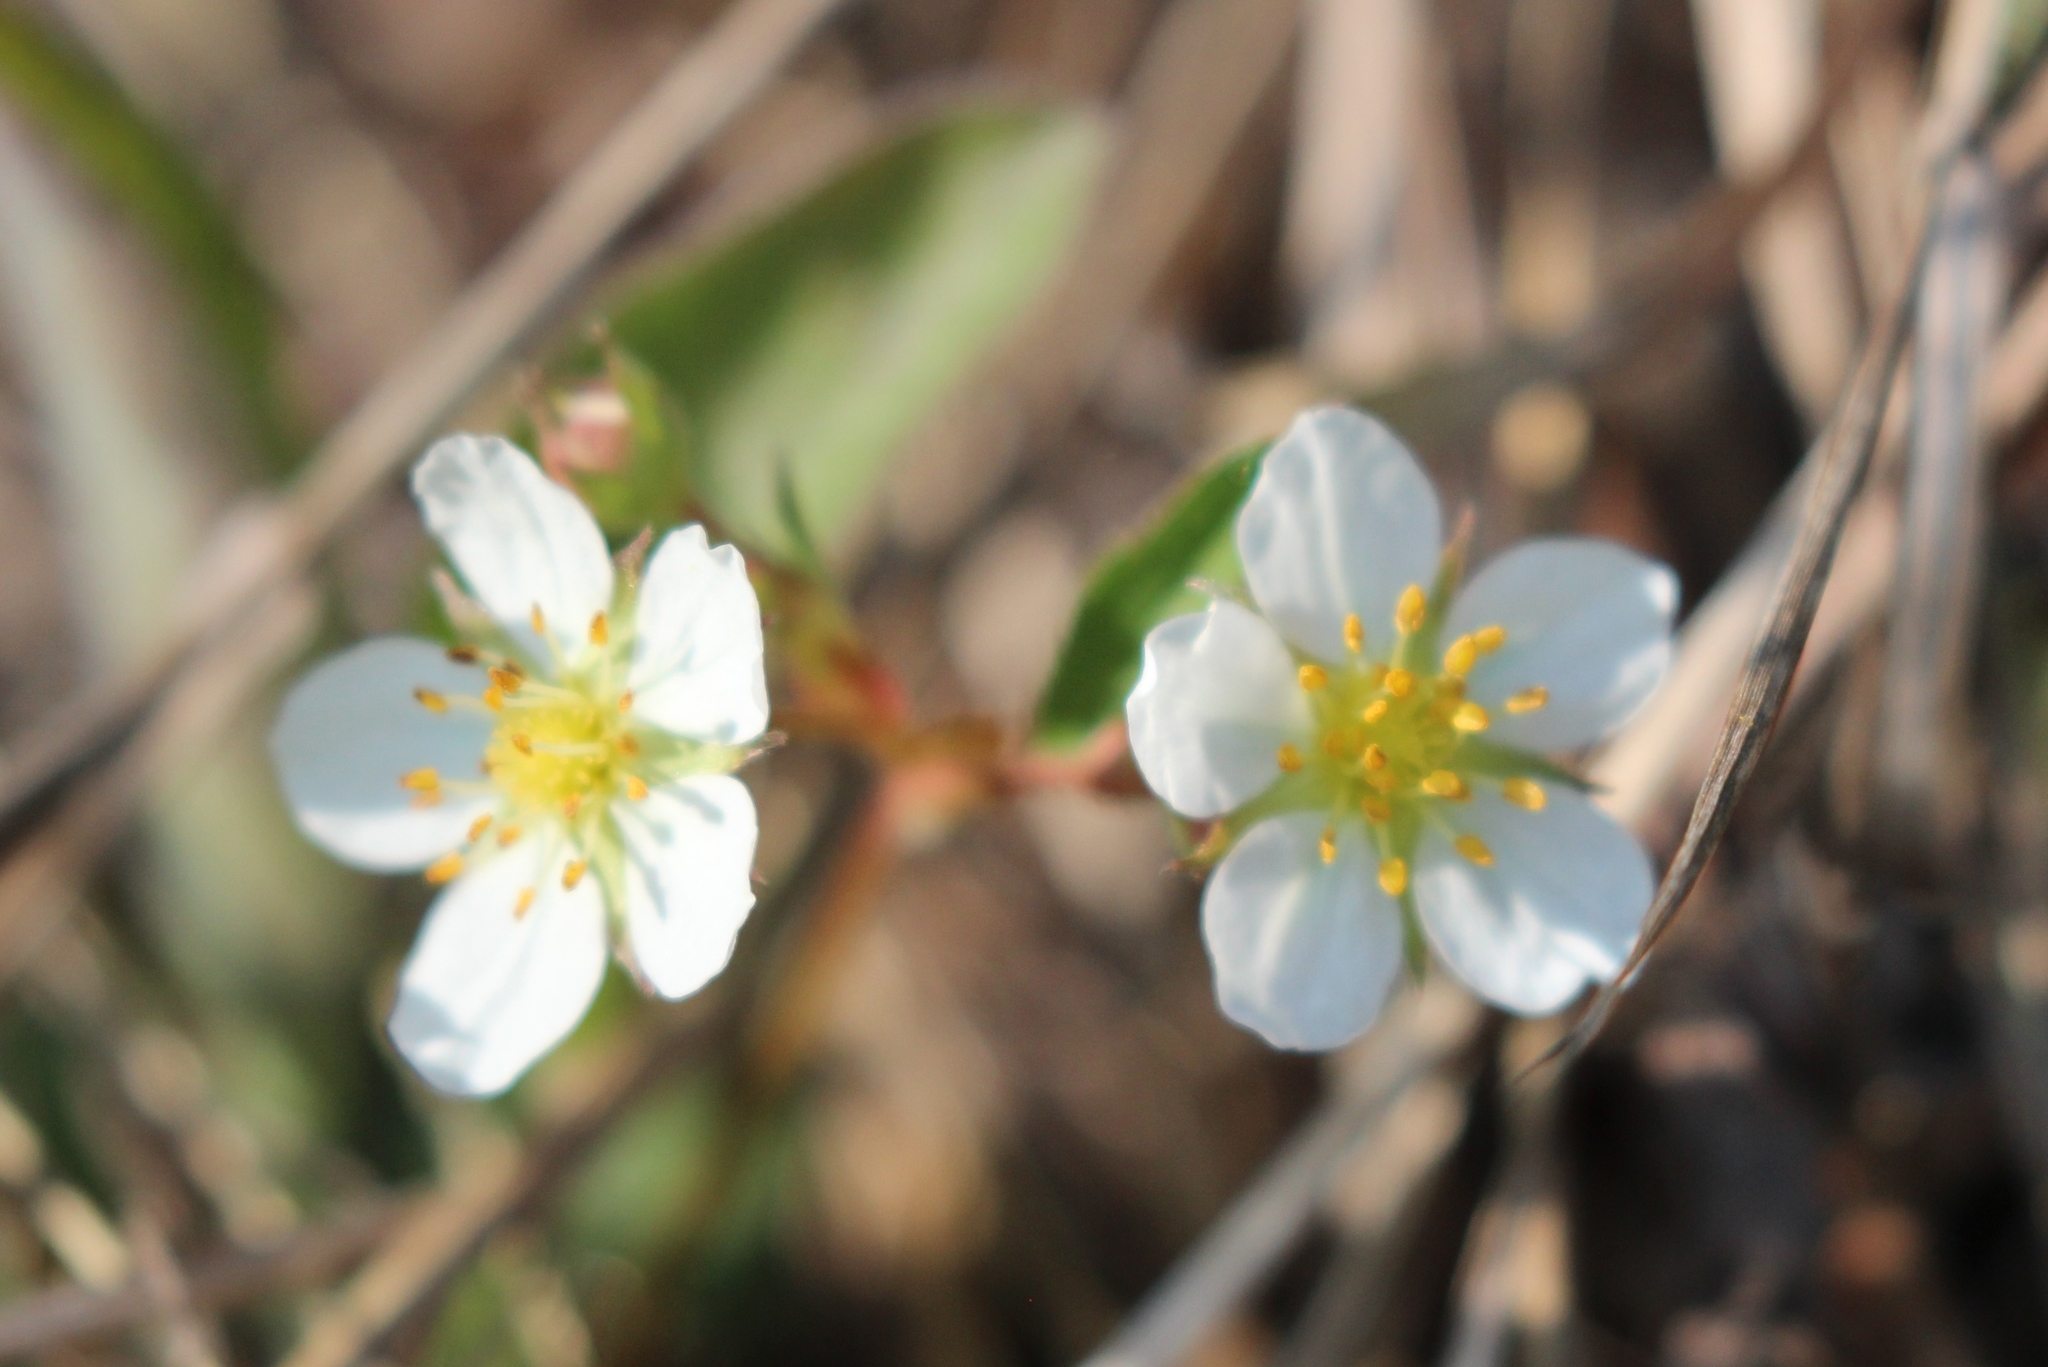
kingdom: Plantae
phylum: Tracheophyta
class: Magnoliopsida
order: Rosales
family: Rosaceae
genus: Fragaria
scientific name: Fragaria virginiana
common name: Thickleaved wild strawberry
